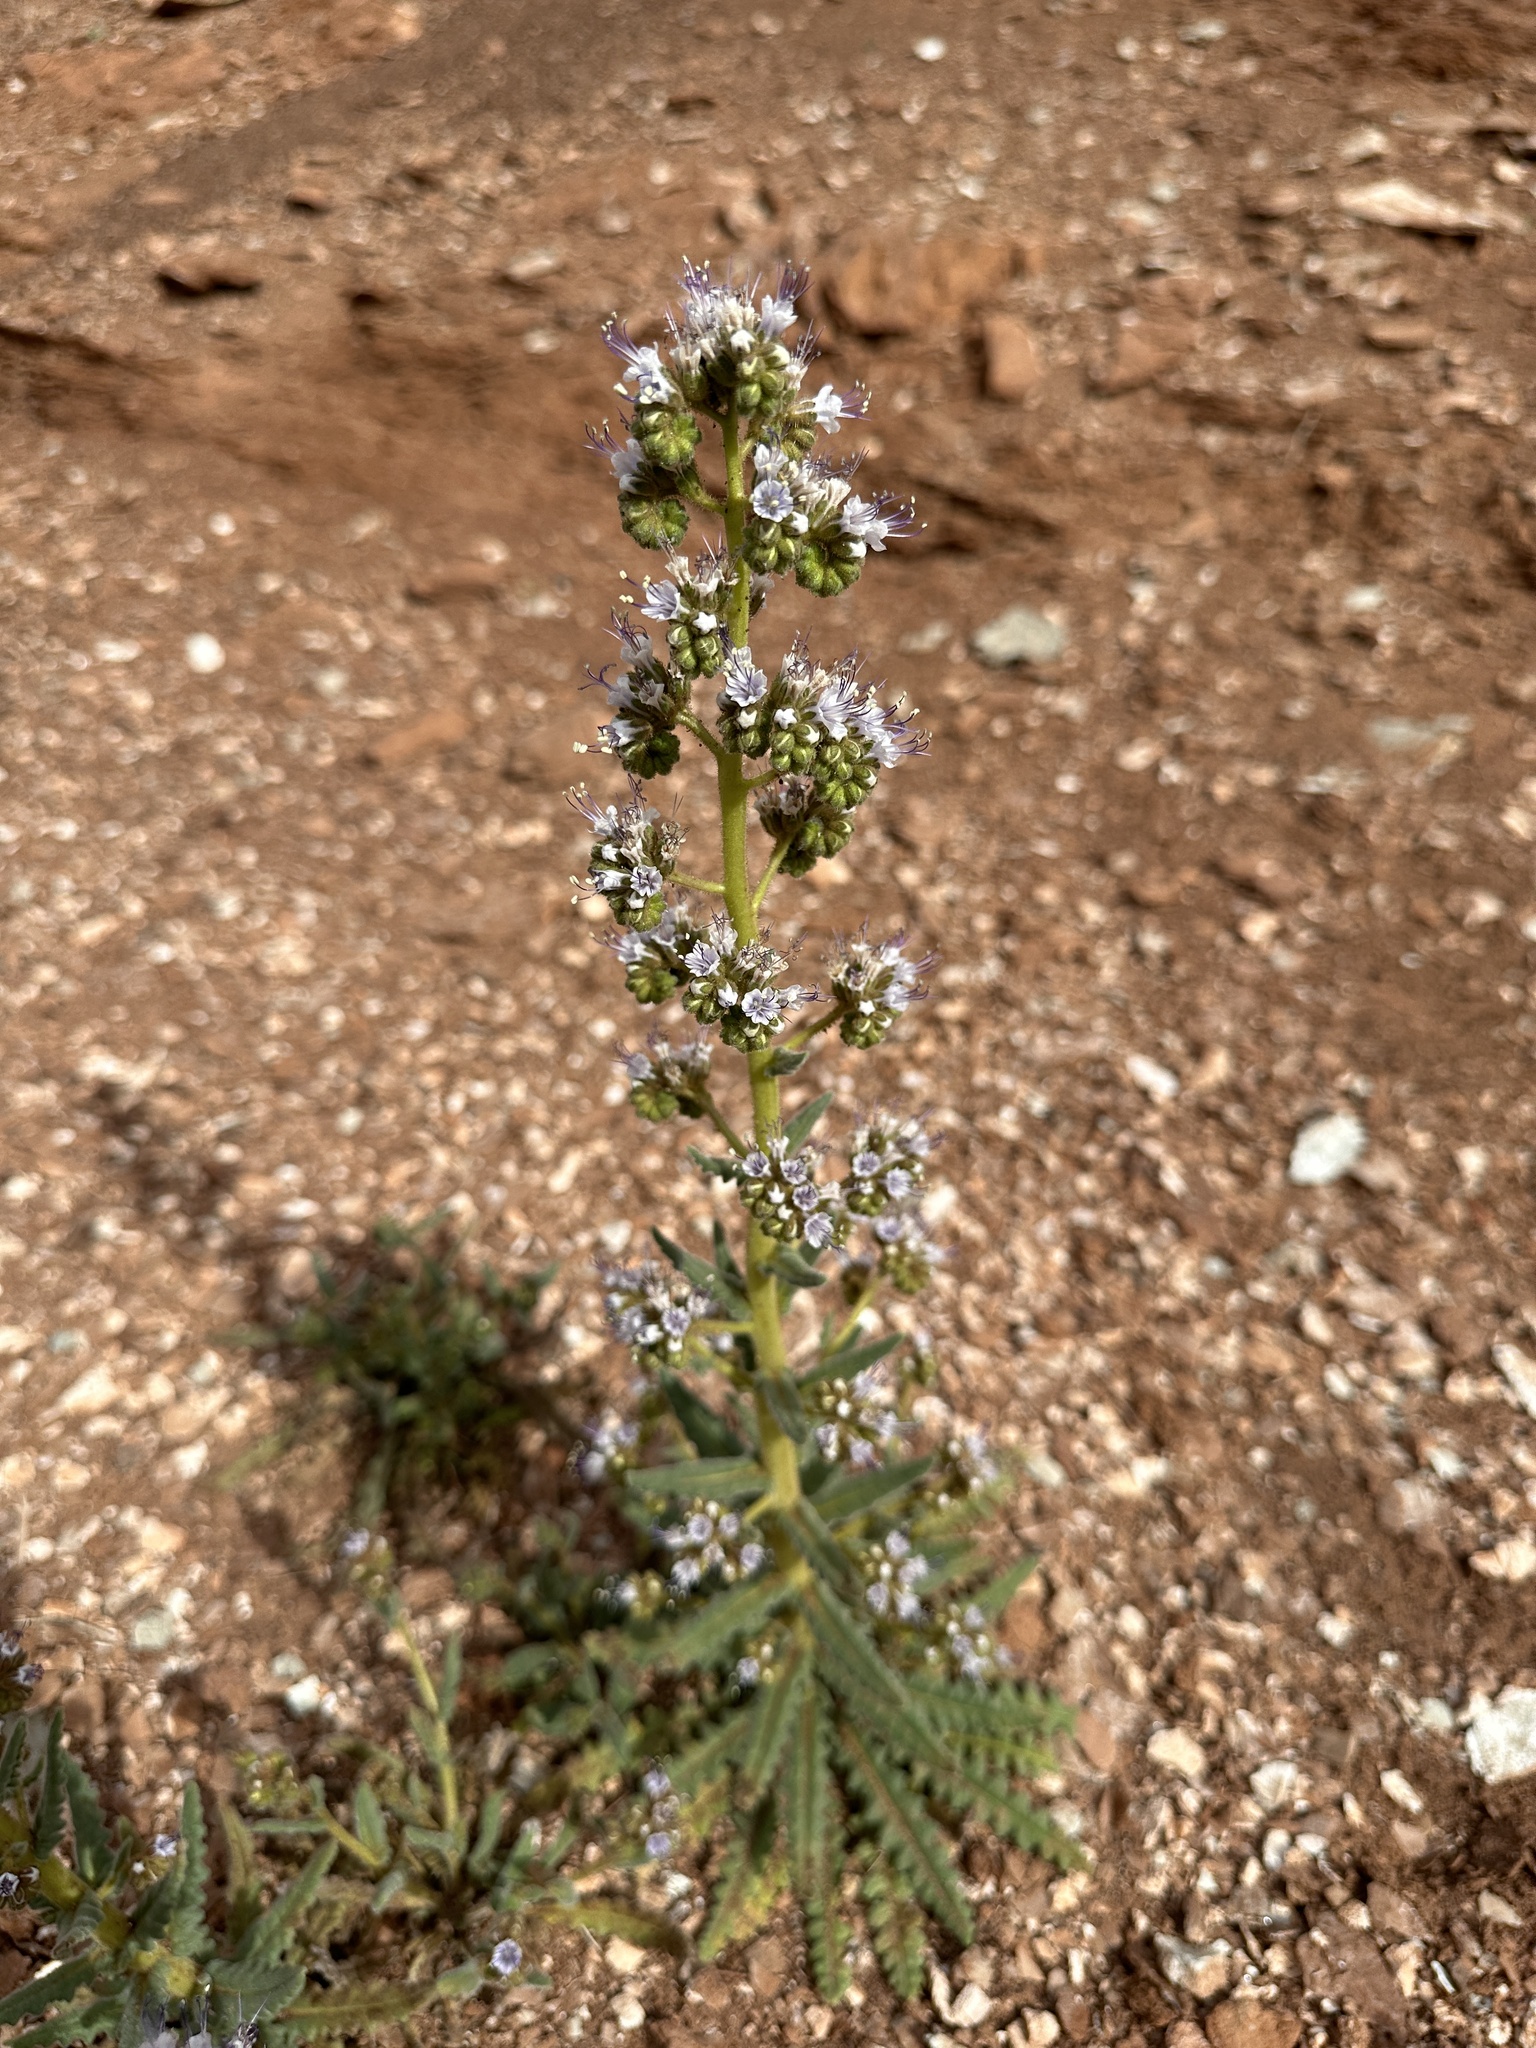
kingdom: Plantae
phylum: Tracheophyta
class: Magnoliopsida
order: Boraginales
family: Hydrophyllaceae
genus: Phacelia
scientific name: Phacelia rafaelensis
